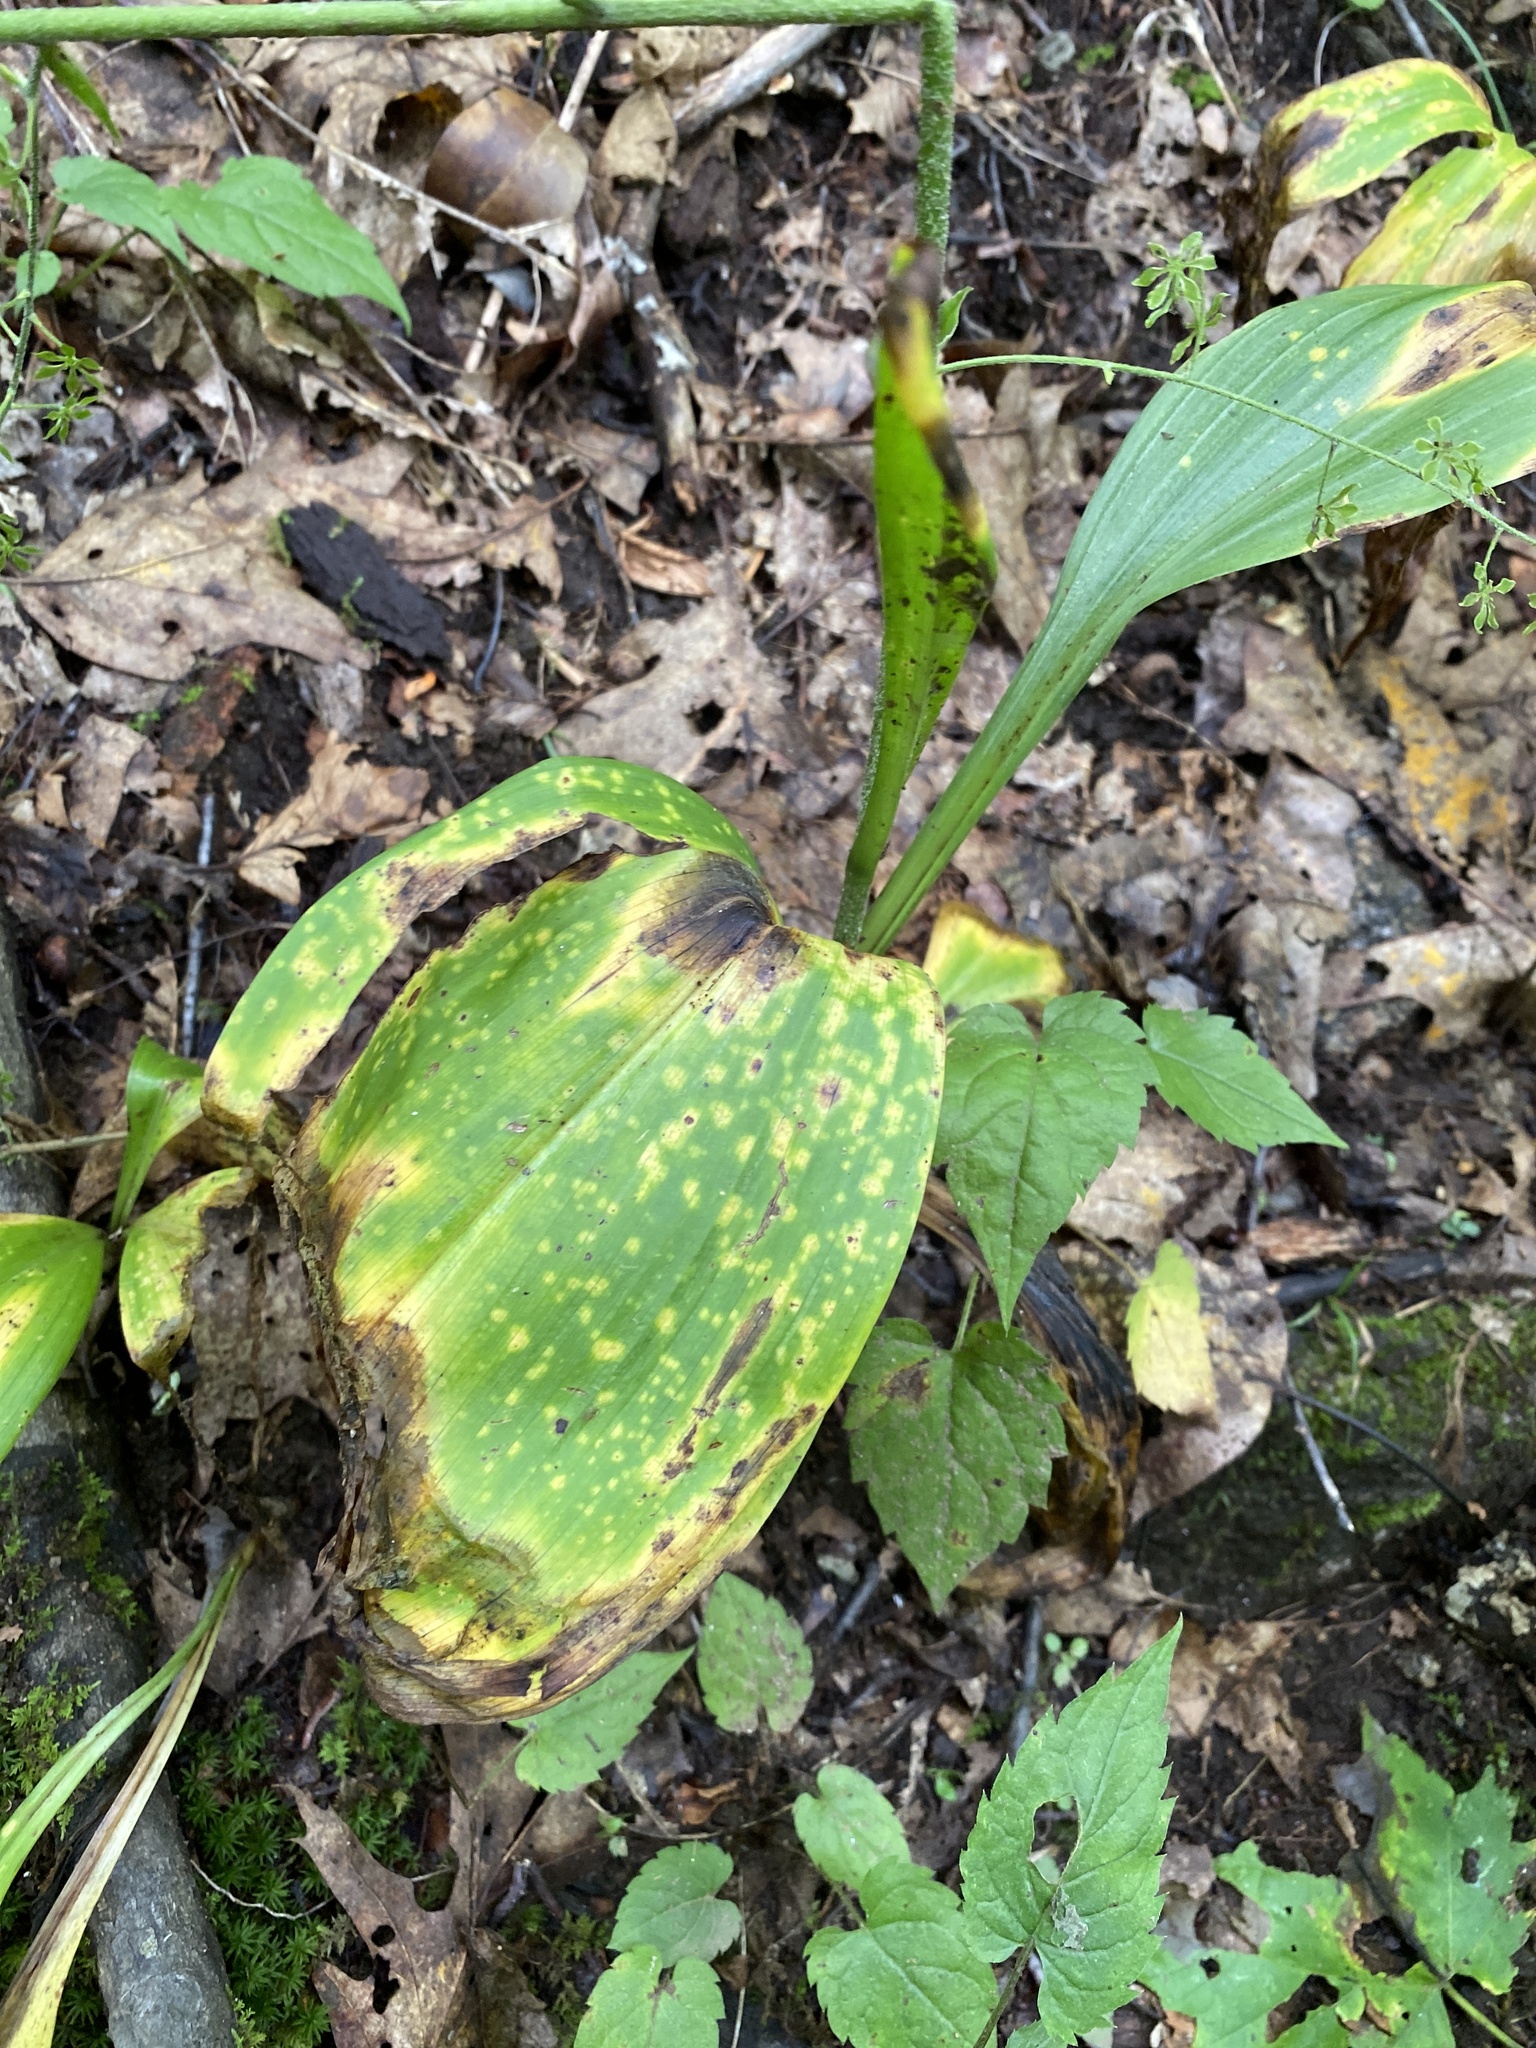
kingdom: Plantae
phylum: Tracheophyta
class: Liliopsida
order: Liliales
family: Melanthiaceae
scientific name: Melanthiaceae
